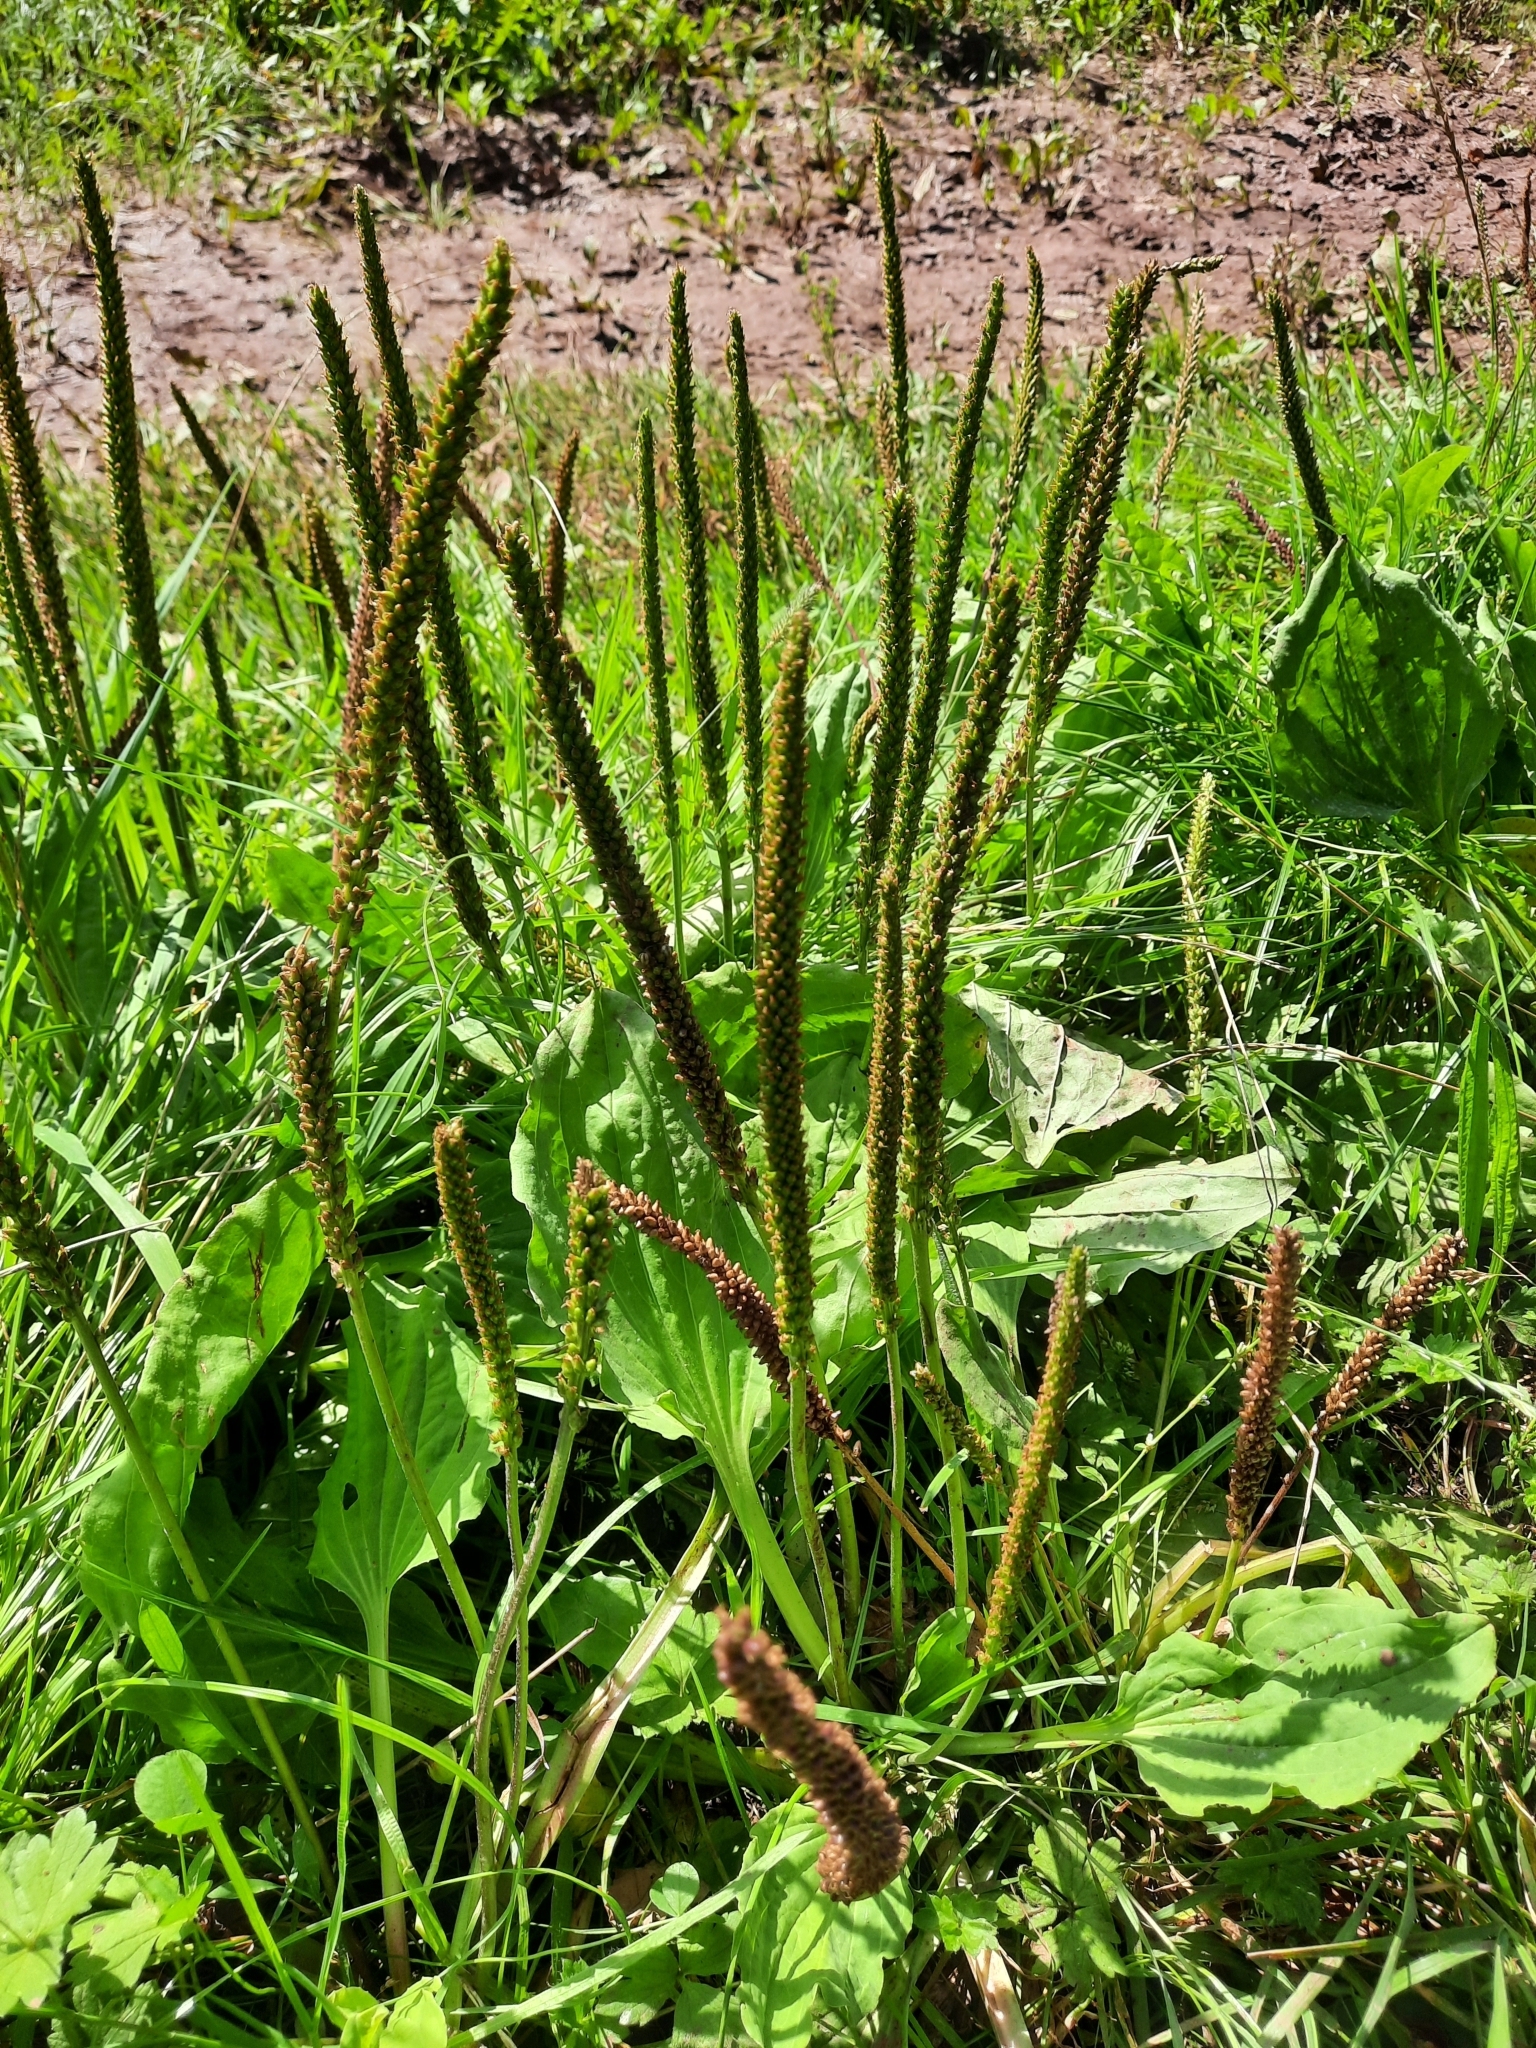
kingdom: Plantae
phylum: Tracheophyta
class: Magnoliopsida
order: Lamiales
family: Plantaginaceae
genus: Plantago
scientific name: Plantago major
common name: Common plantain
